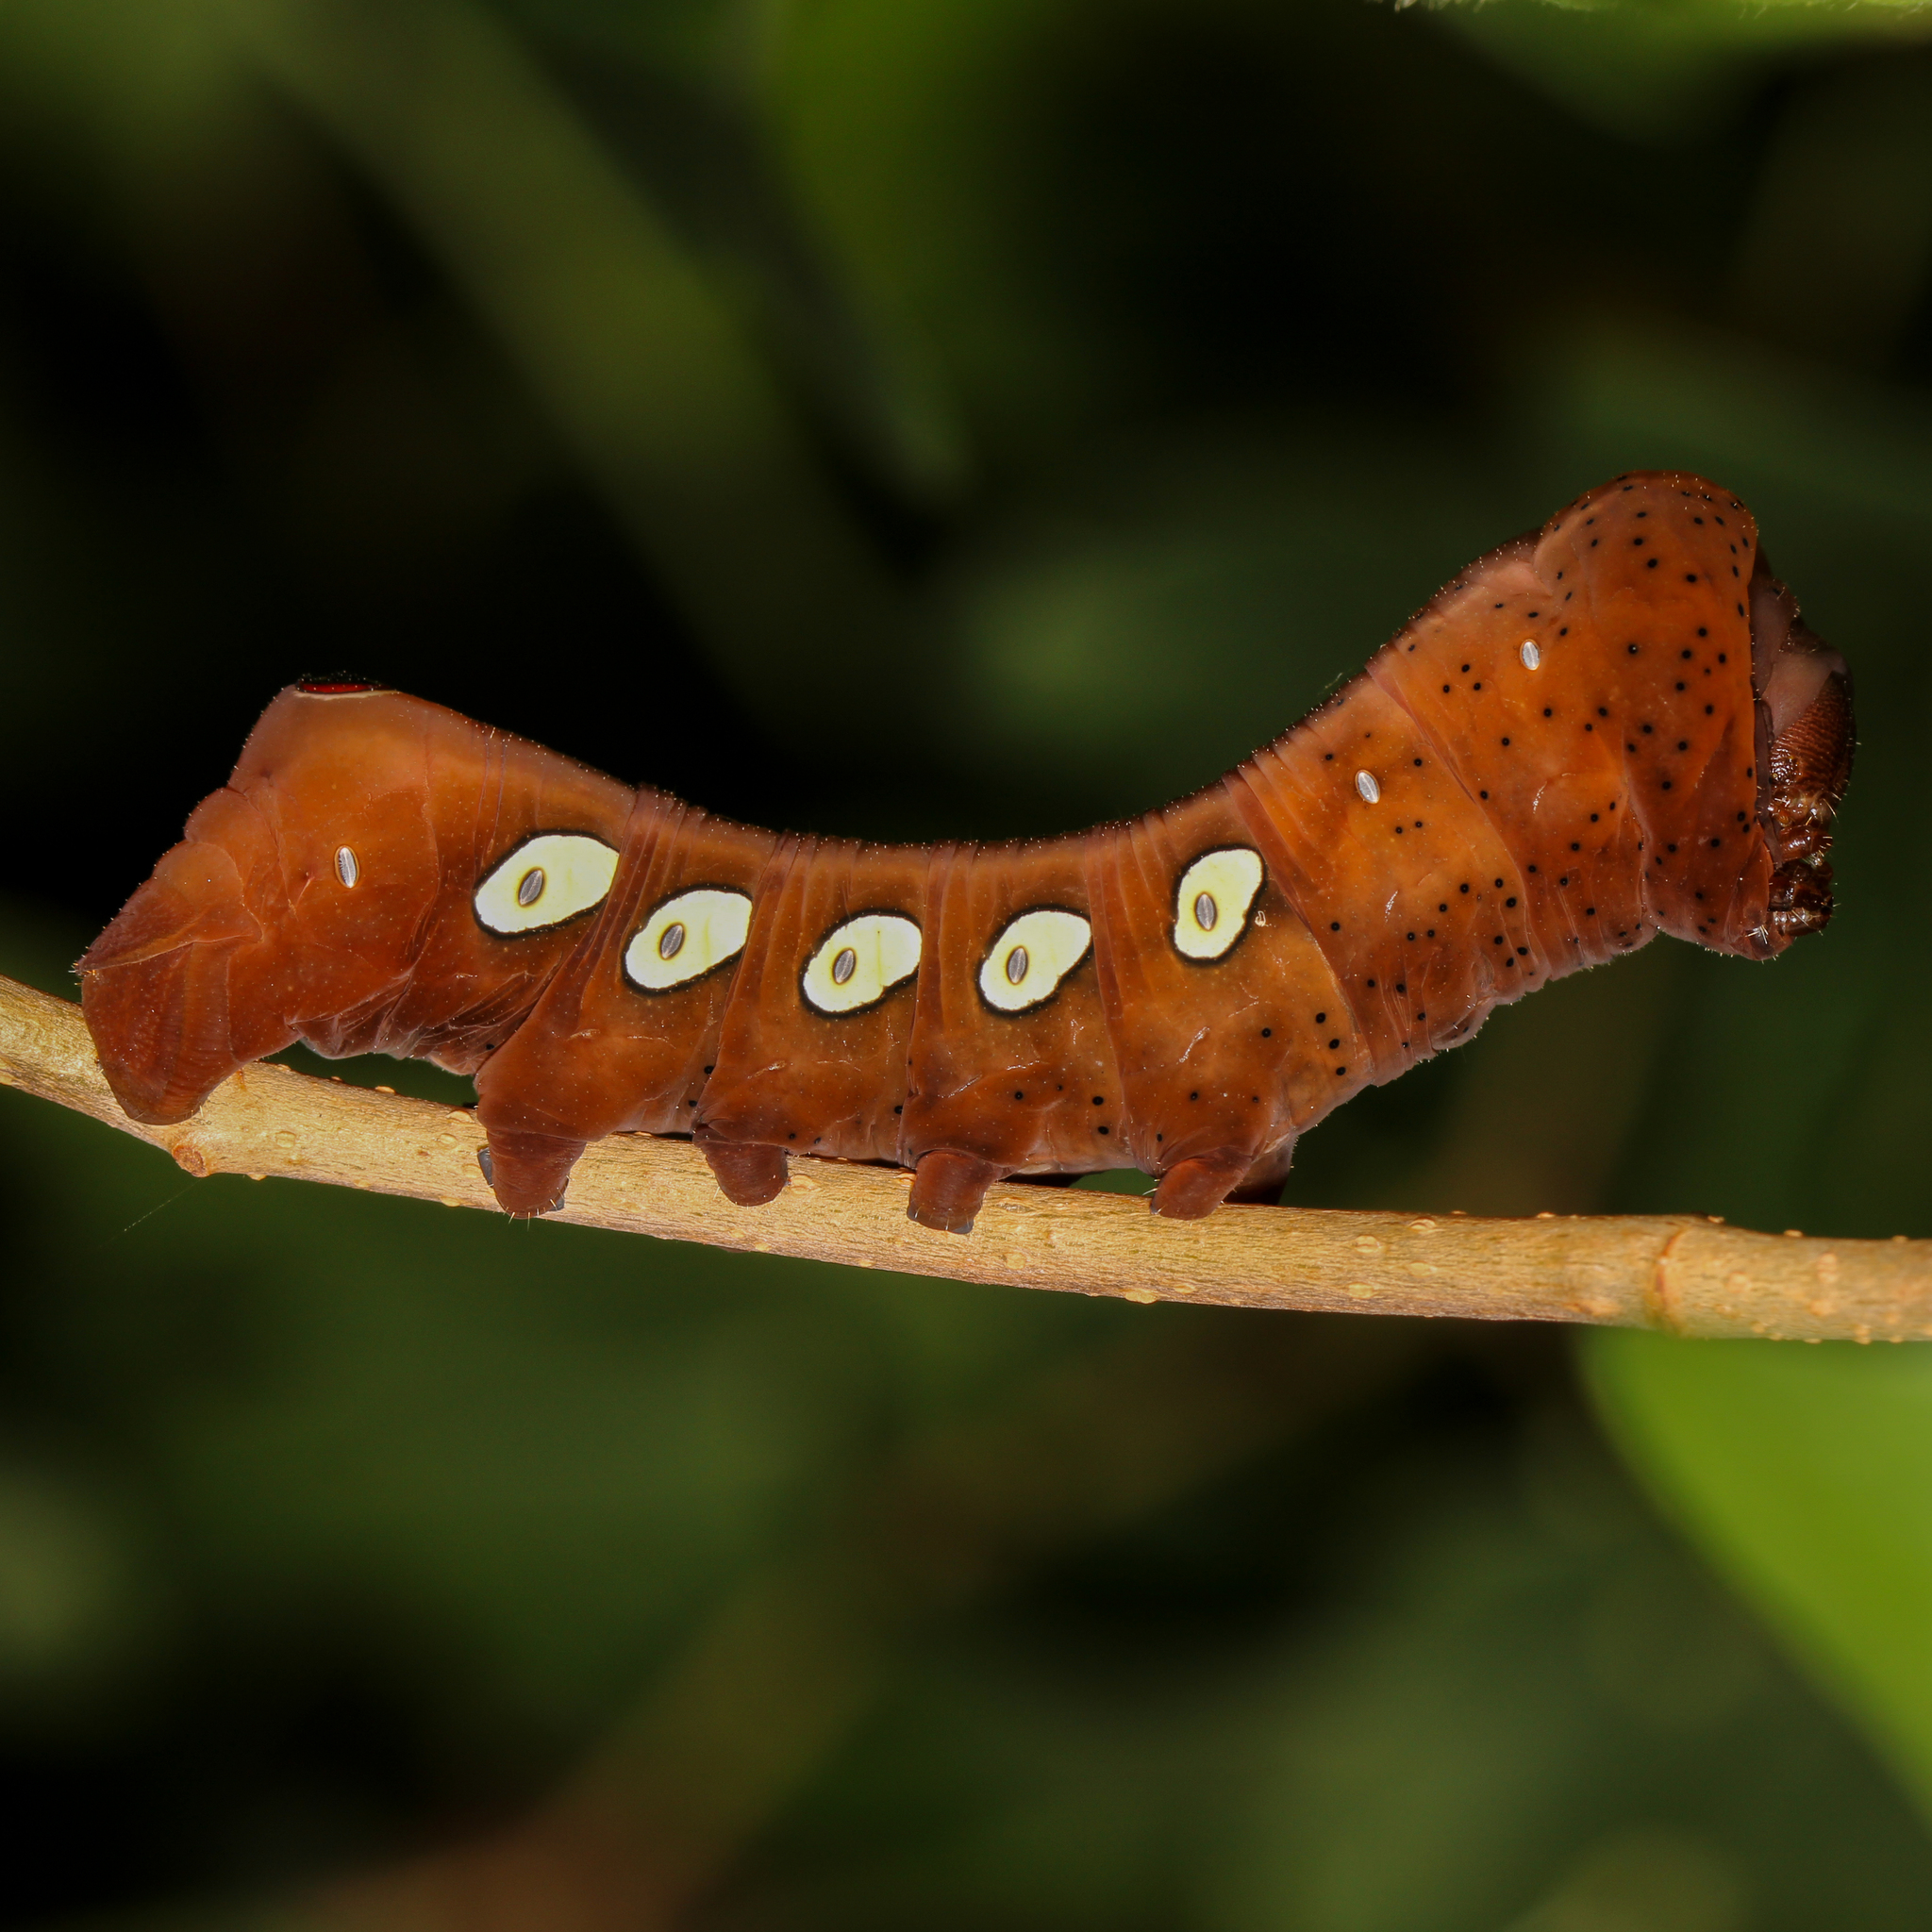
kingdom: Animalia
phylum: Arthropoda
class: Insecta
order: Lepidoptera
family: Sphingidae
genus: Eumorpha
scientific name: Eumorpha pandorus
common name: Pandora sphinx
